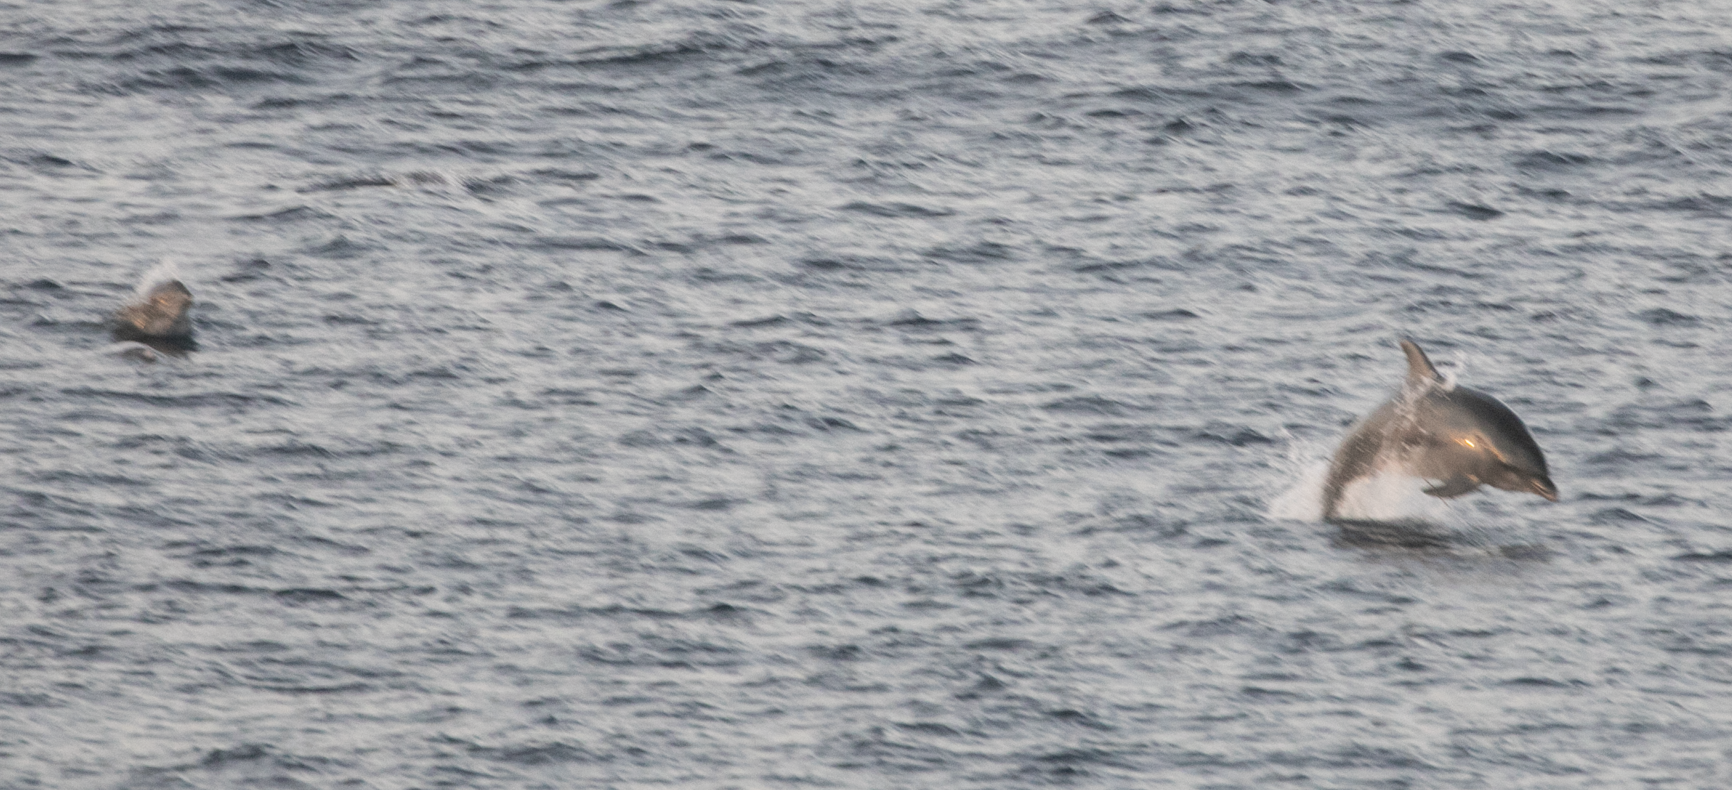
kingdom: Animalia
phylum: Chordata
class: Mammalia
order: Cetacea
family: Delphinidae
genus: Tursiops
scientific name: Tursiops truncatus
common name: Bottlenose dolphin
